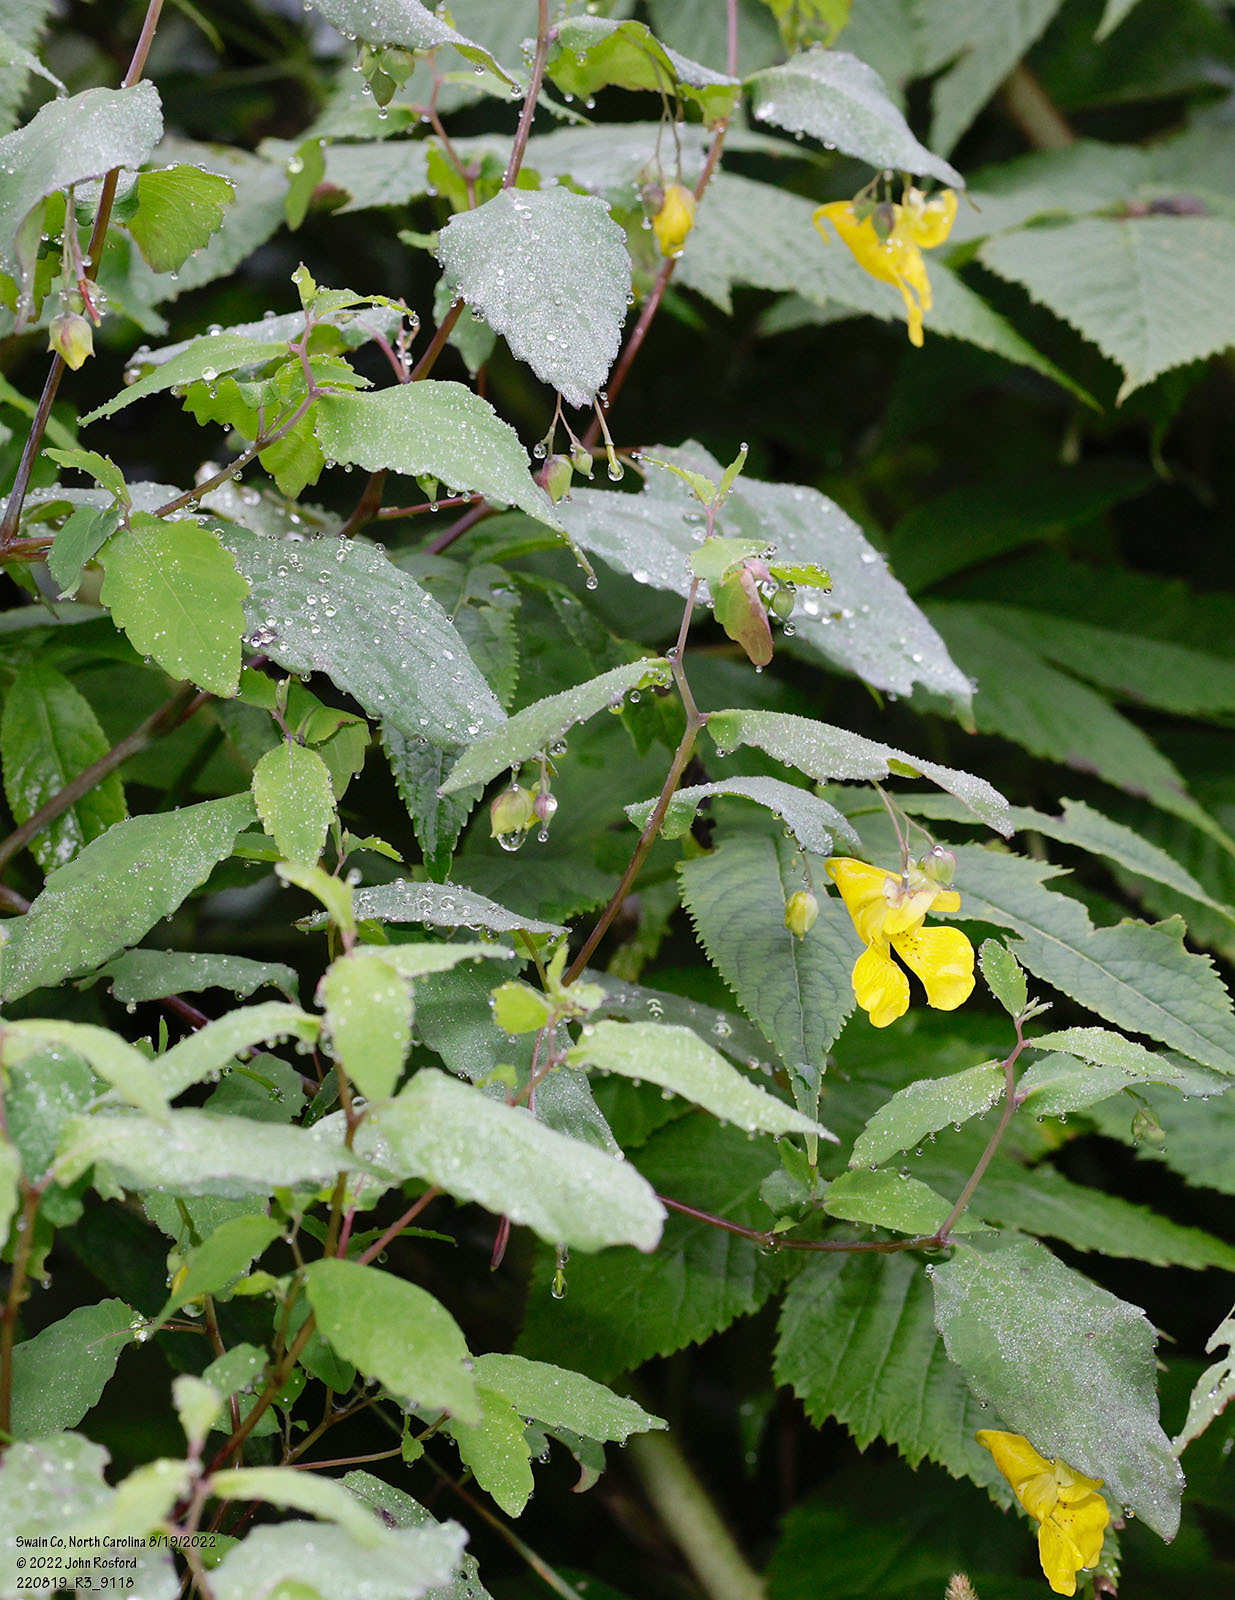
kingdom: Plantae
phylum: Tracheophyta
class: Magnoliopsida
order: Ericales
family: Balsaminaceae
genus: Impatiens
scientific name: Impatiens pallida
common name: Pale snapweed
